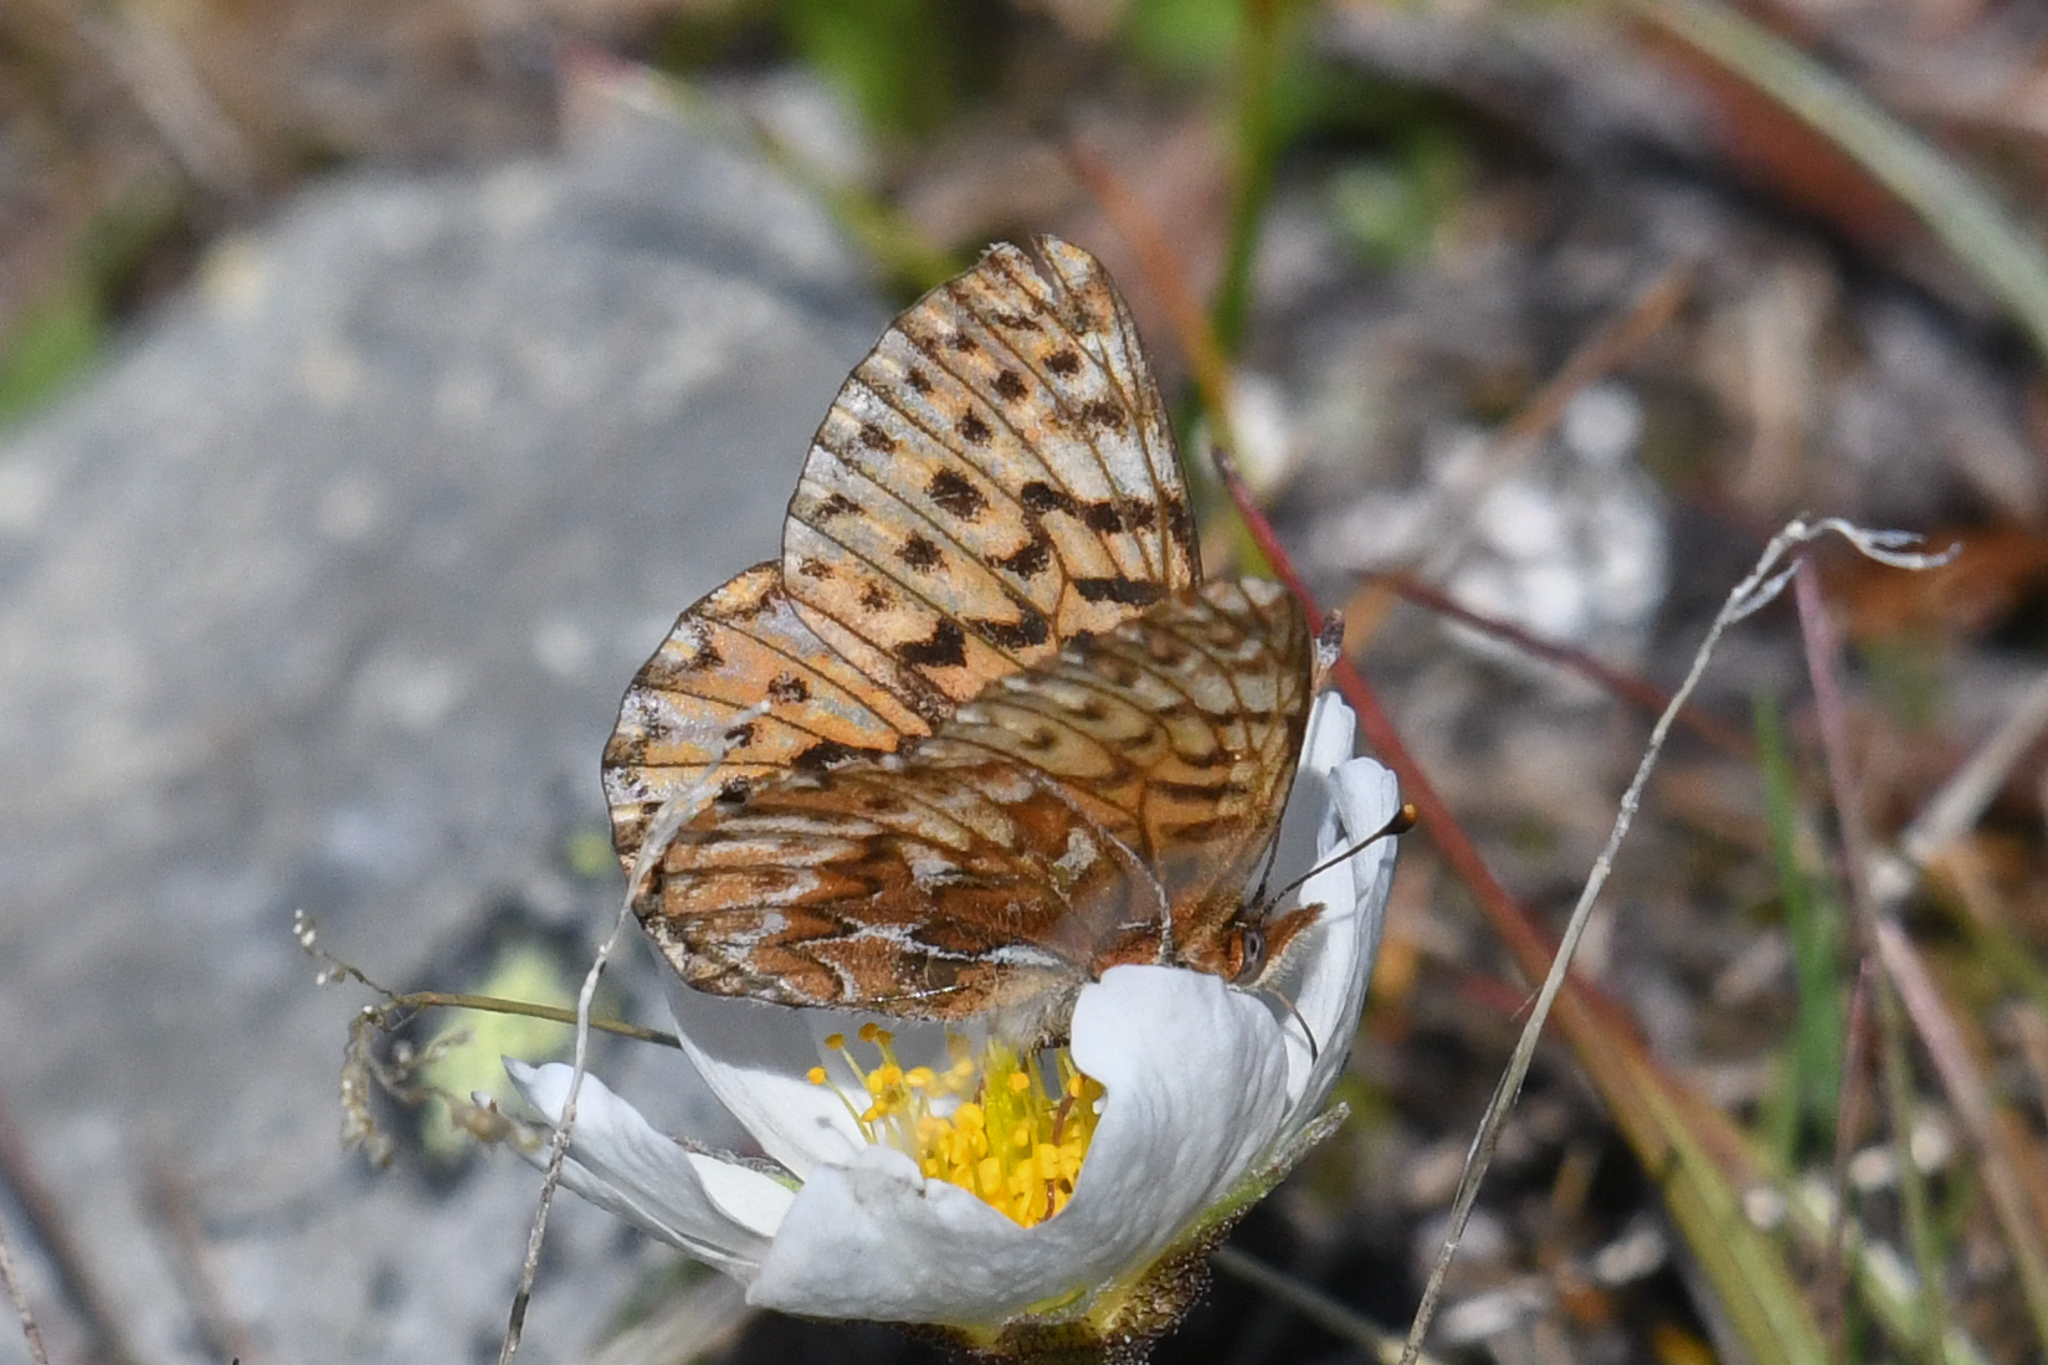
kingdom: Animalia
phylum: Arthropoda
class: Insecta
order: Lepidoptera
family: Nymphalidae
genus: Boloria
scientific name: Boloria freija
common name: Freija fritillary
